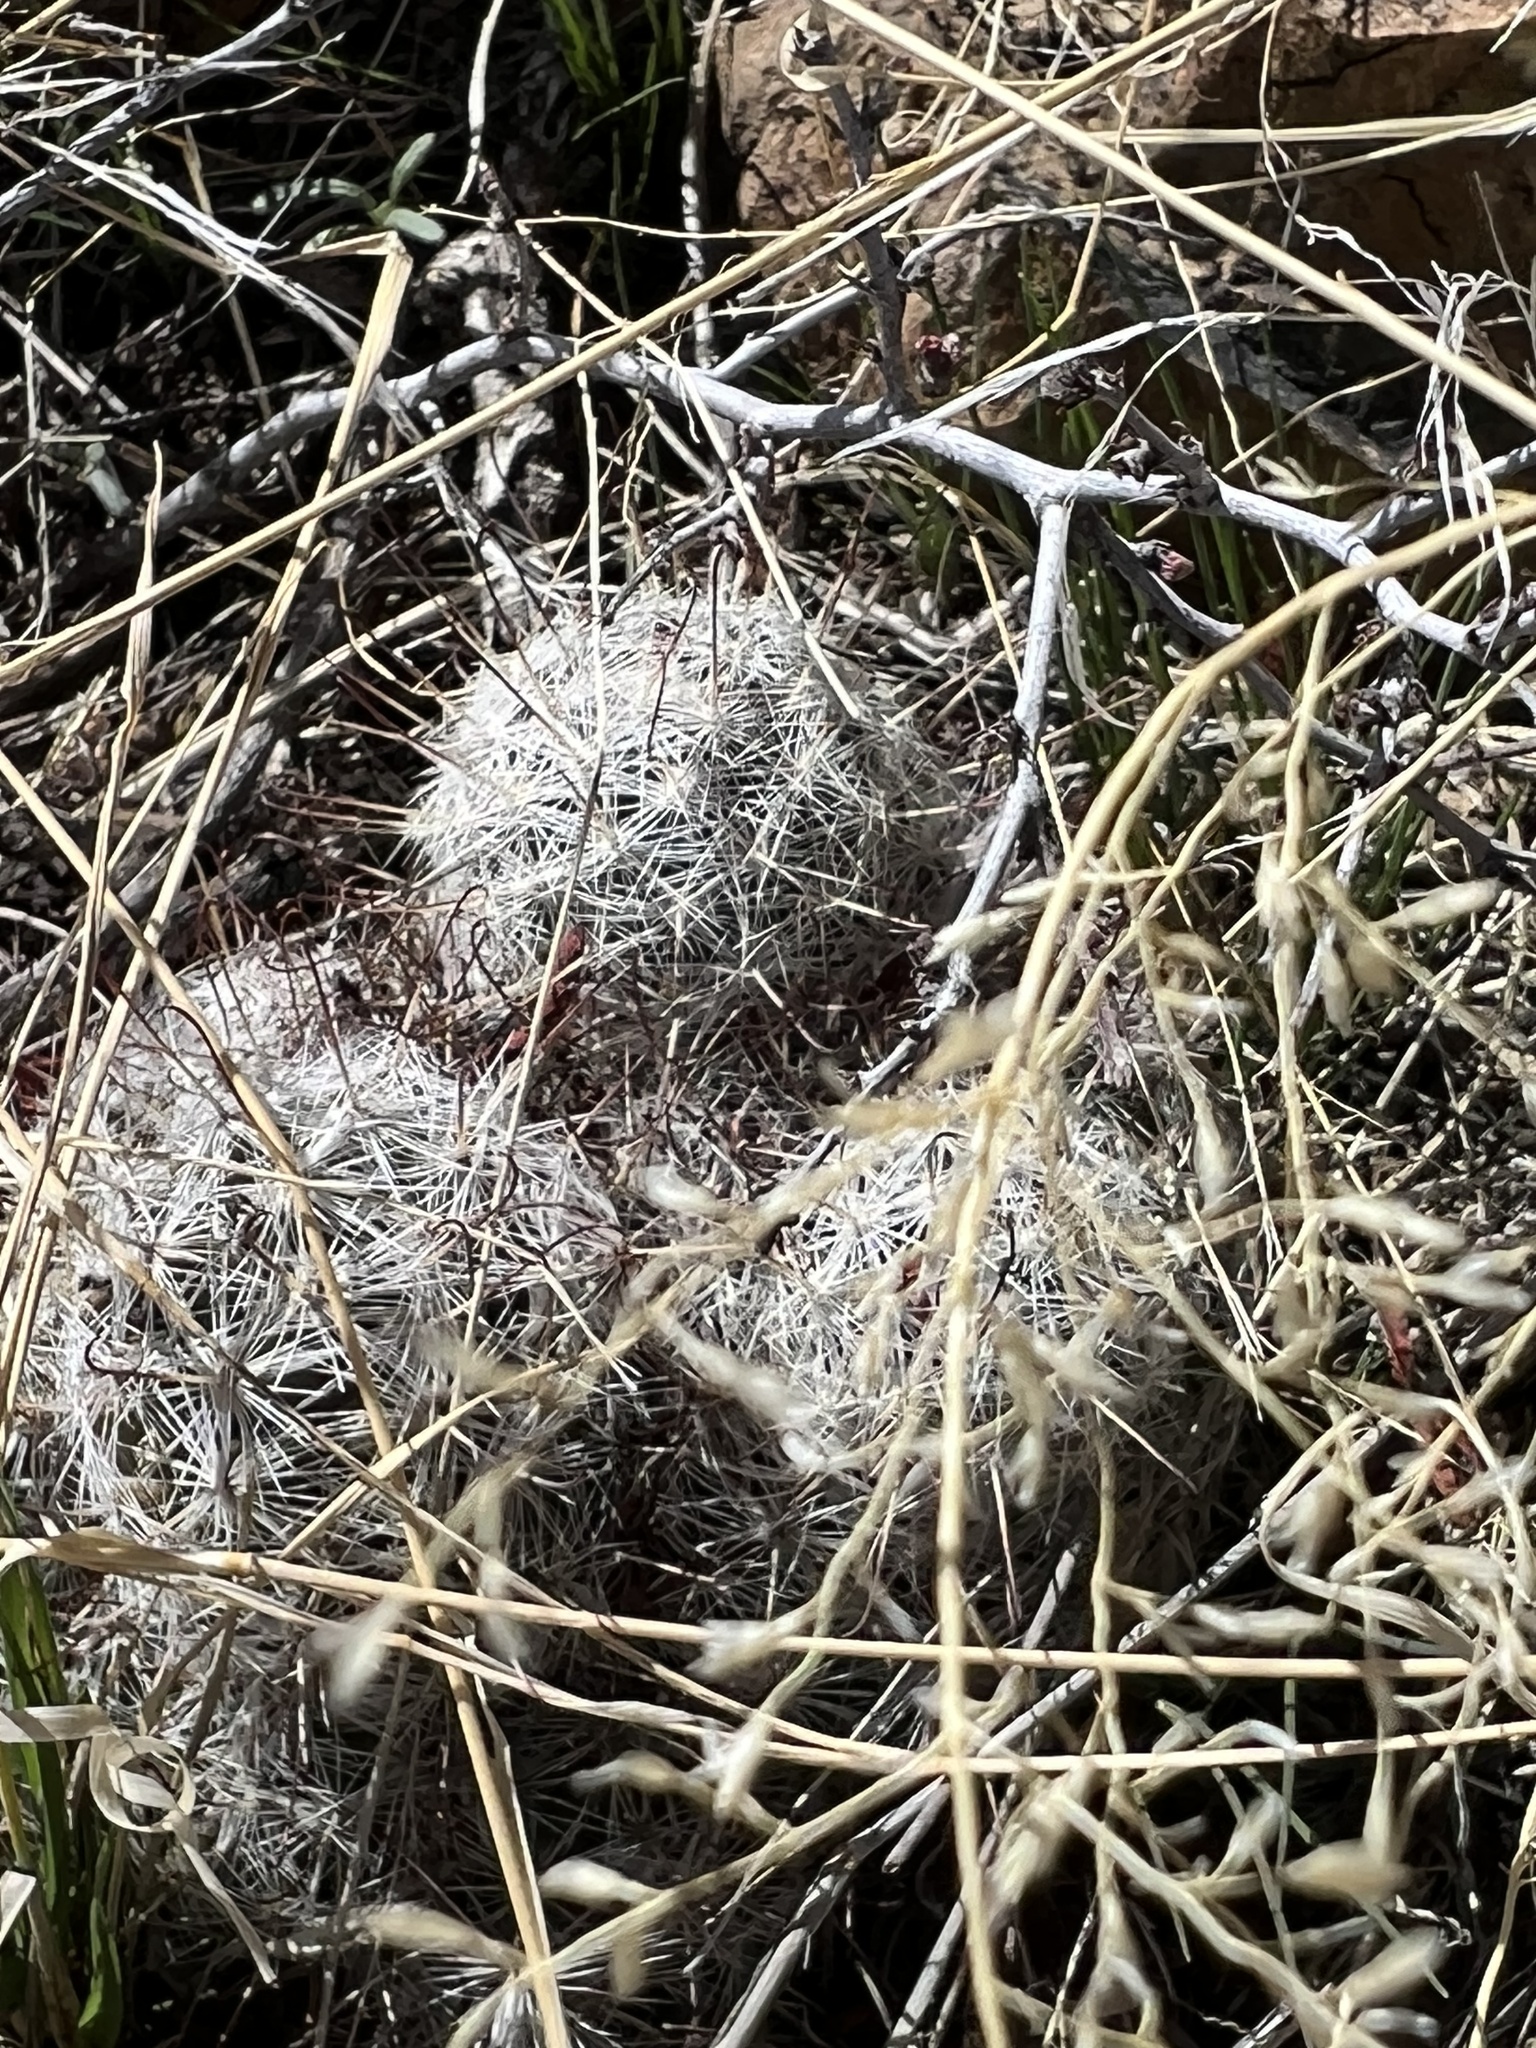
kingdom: Plantae
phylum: Tracheophyta
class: Magnoliopsida
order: Caryophyllales
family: Cactaceae
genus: Cochemiea
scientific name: Cochemiea grahamii
